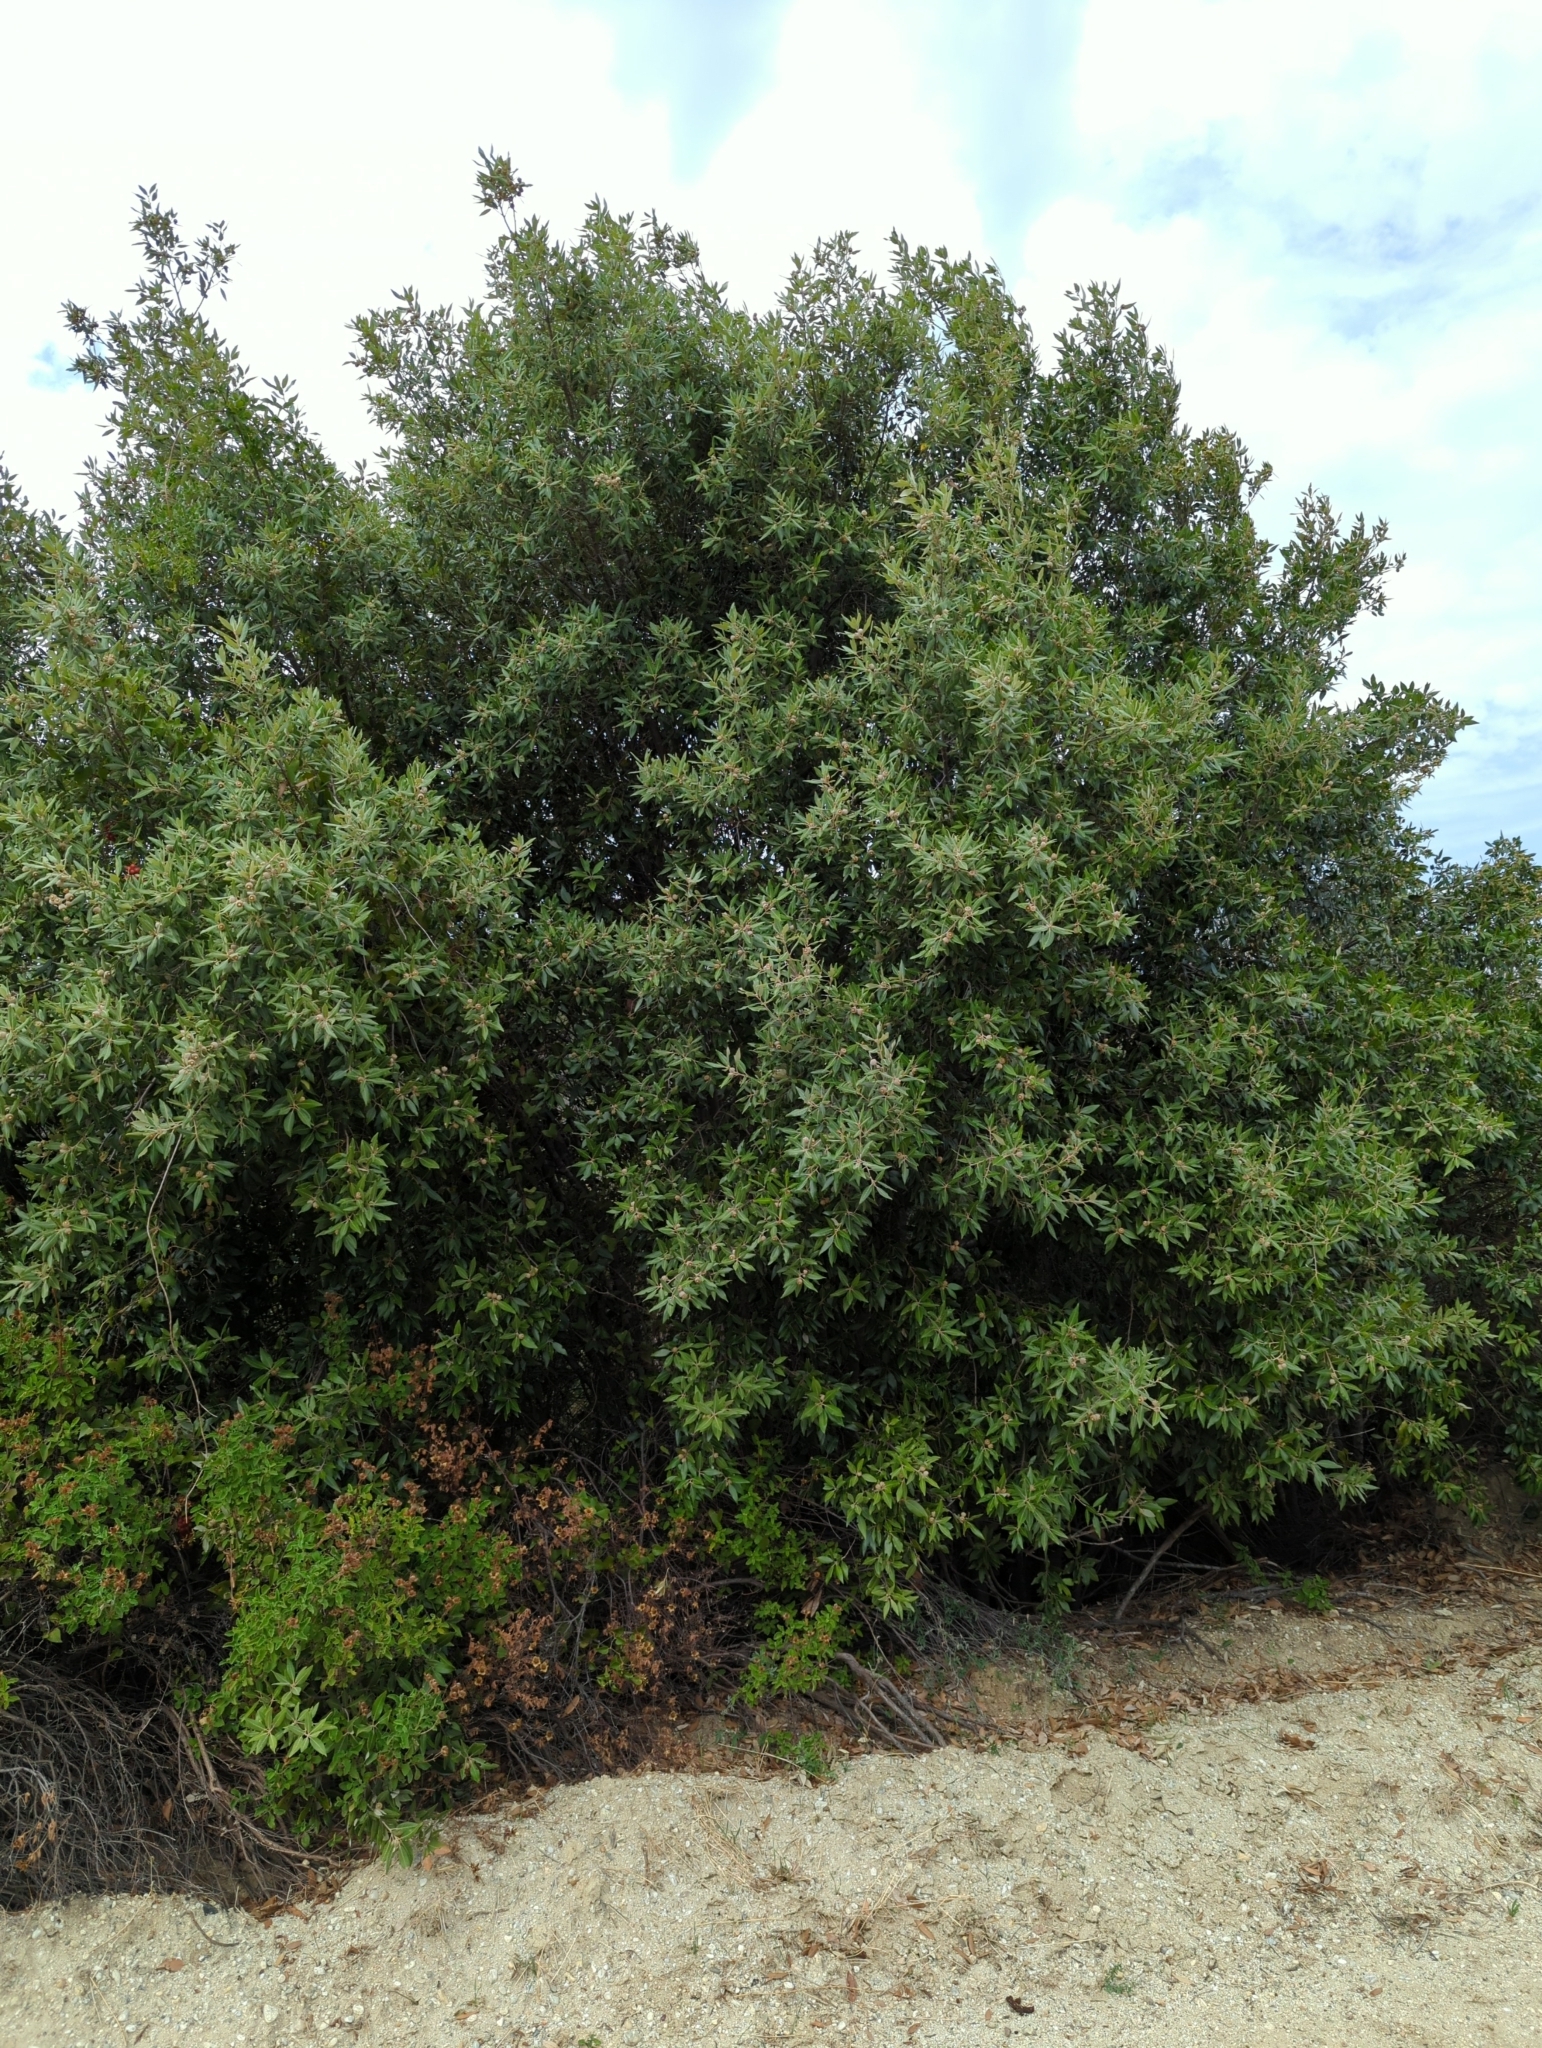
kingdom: Plantae
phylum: Tracheophyta
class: Magnoliopsida
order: Fagales
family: Fagaceae
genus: Quercus
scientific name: Quercus ilex
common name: Evergreen oak
